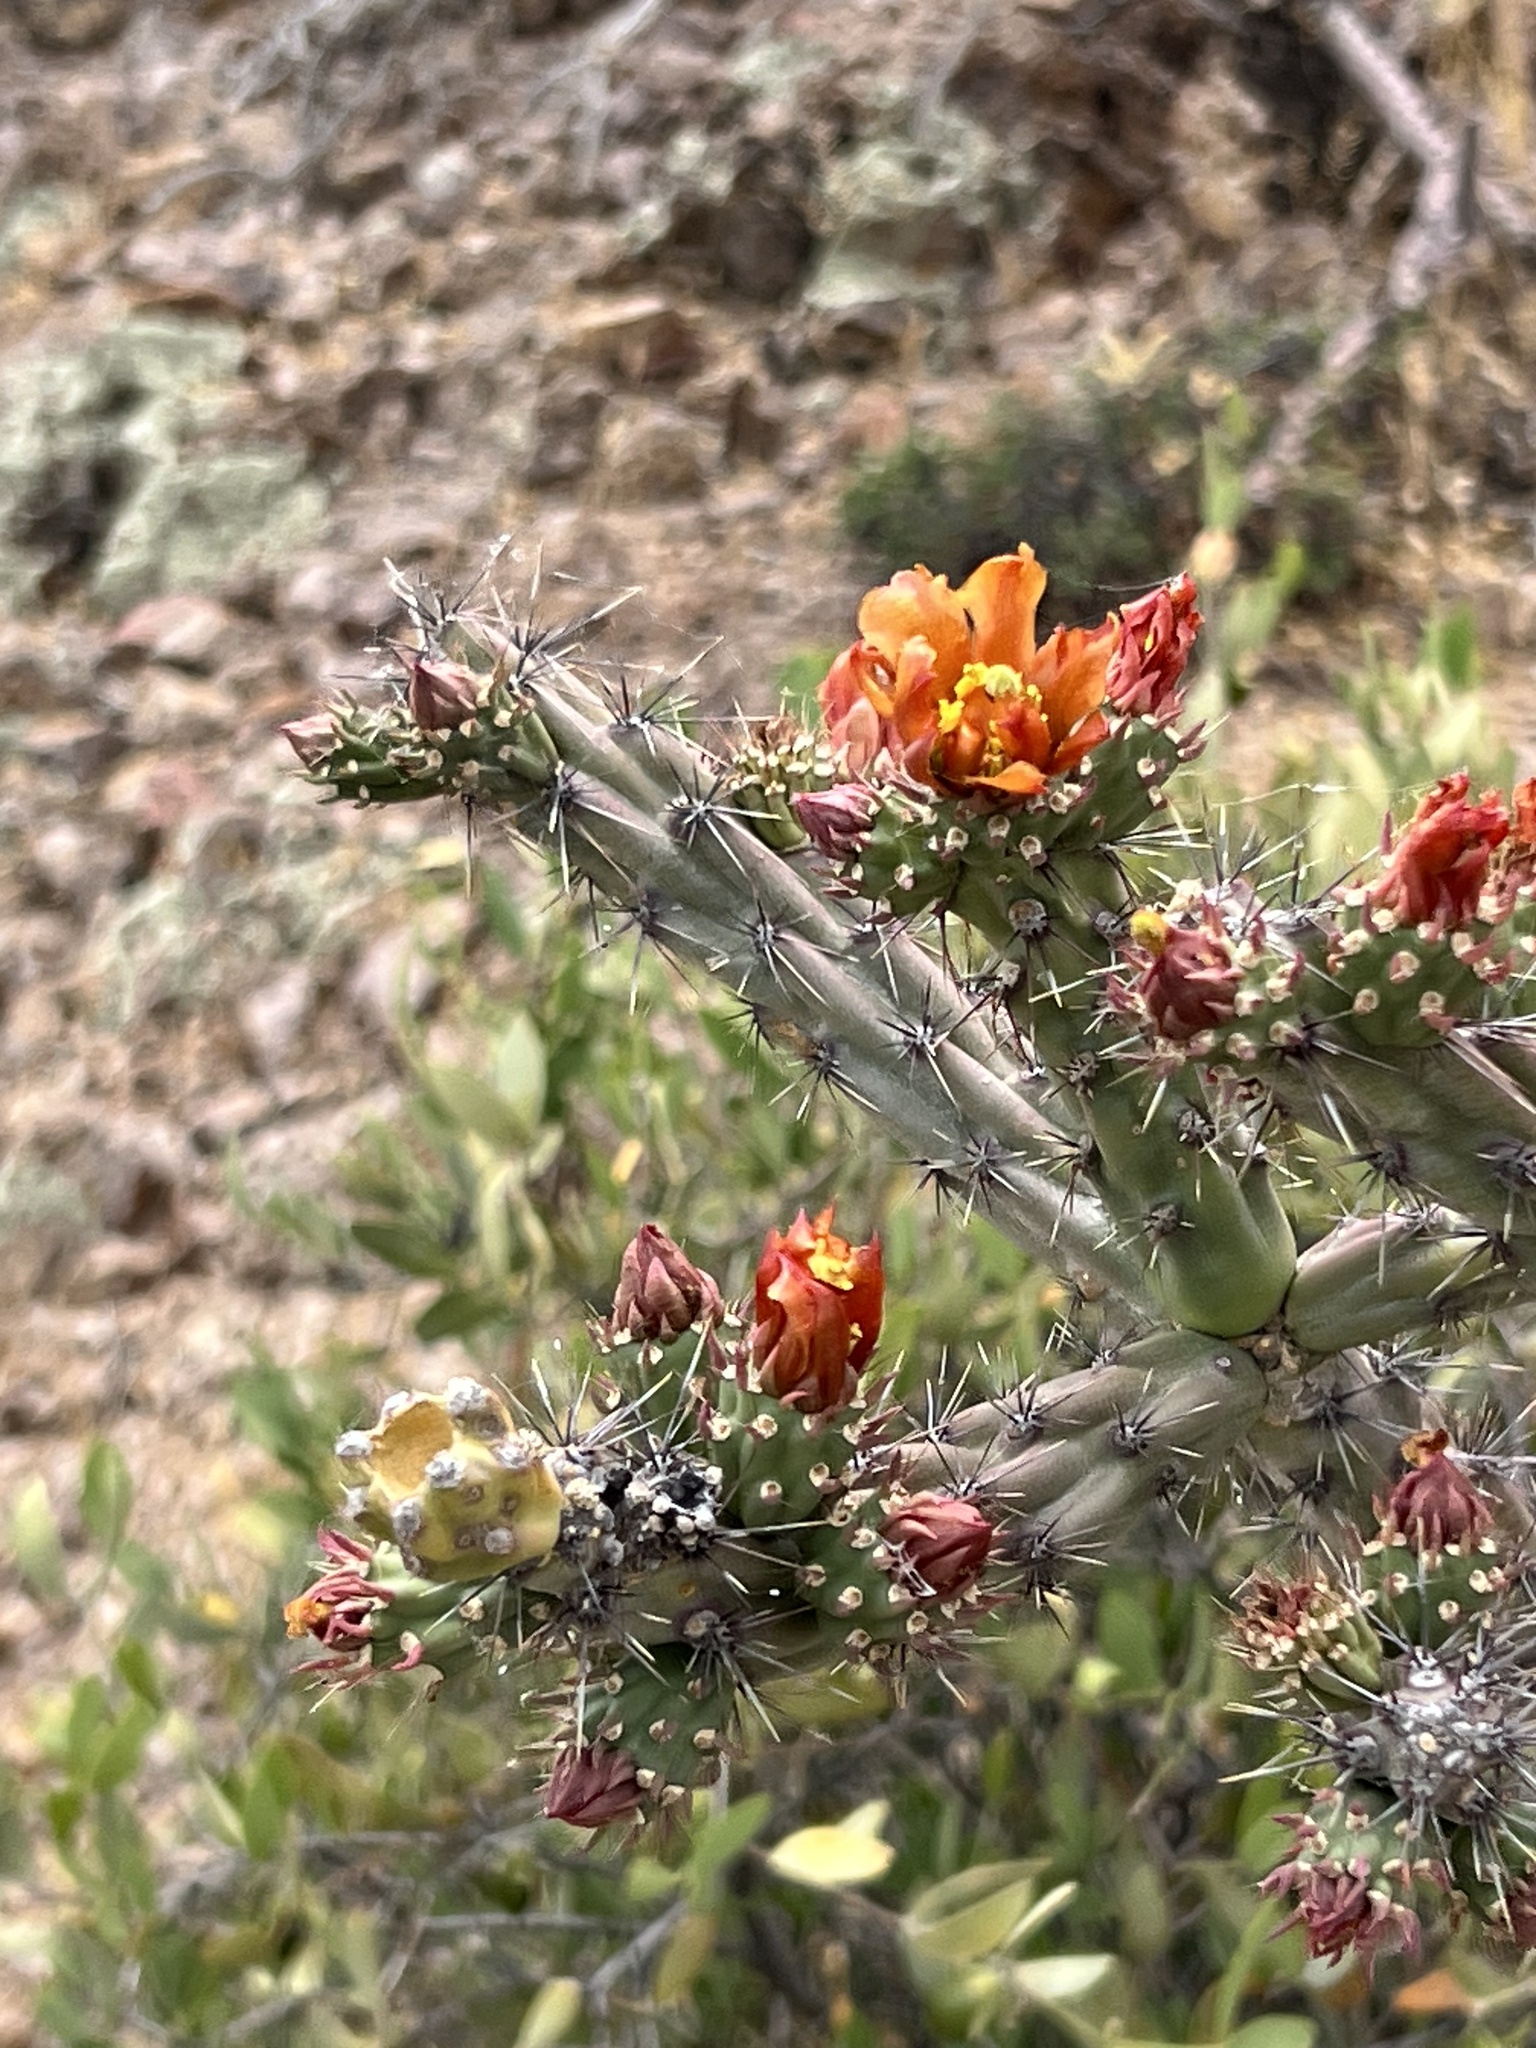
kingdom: Plantae
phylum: Tracheophyta
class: Magnoliopsida
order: Caryophyllales
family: Cactaceae
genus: Cylindropuntia
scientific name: Cylindropuntia thurberi
